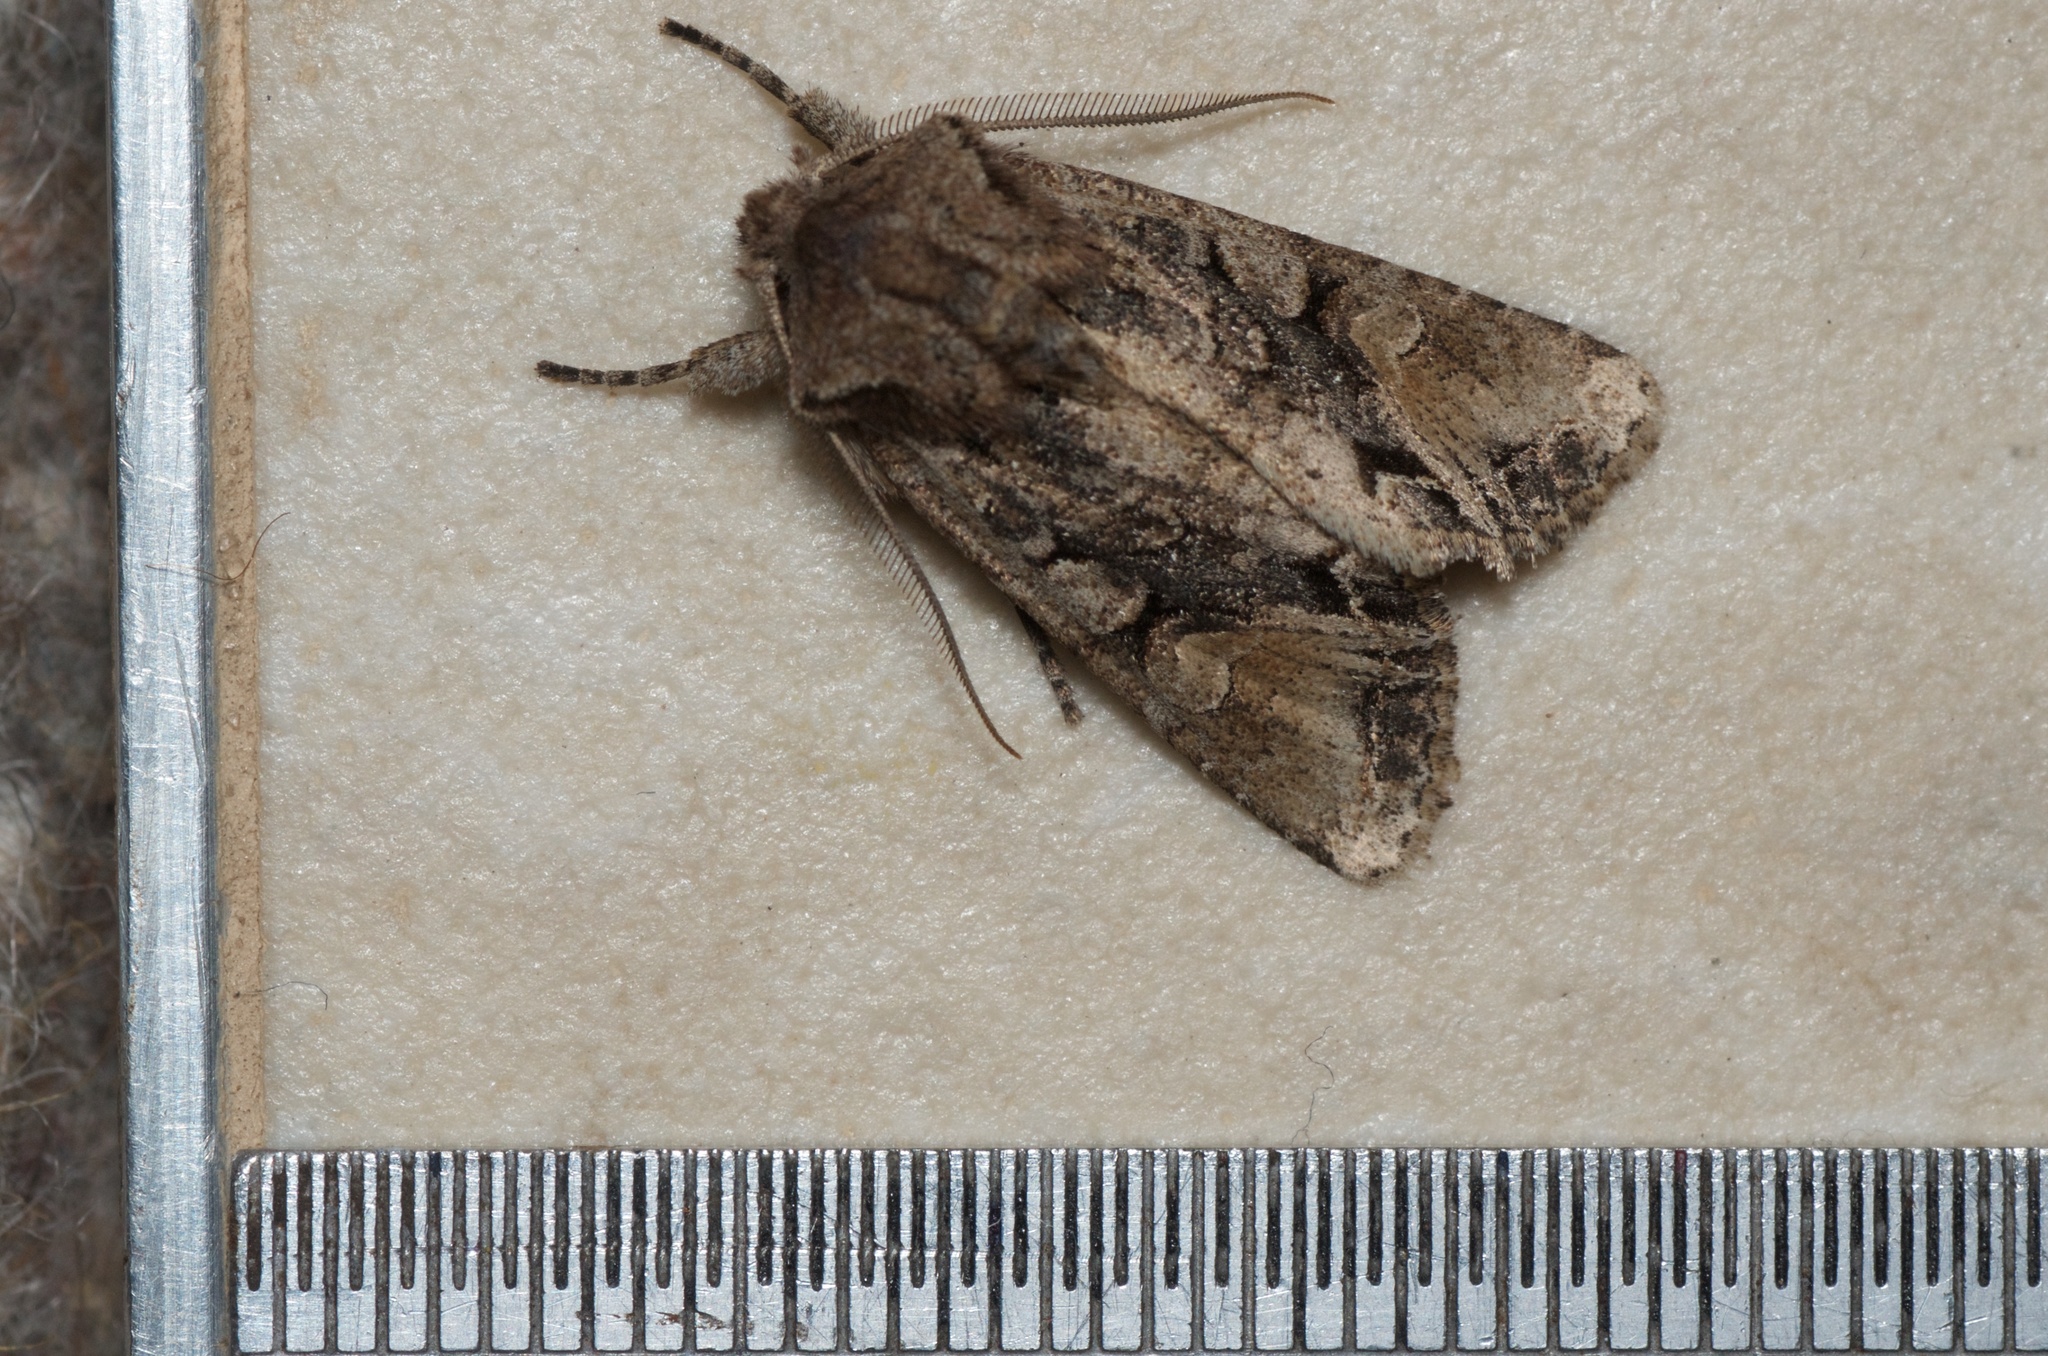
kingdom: Animalia
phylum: Arthropoda
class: Insecta
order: Lepidoptera
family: Noctuidae
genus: Ichneutica
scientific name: Ichneutica insignis
